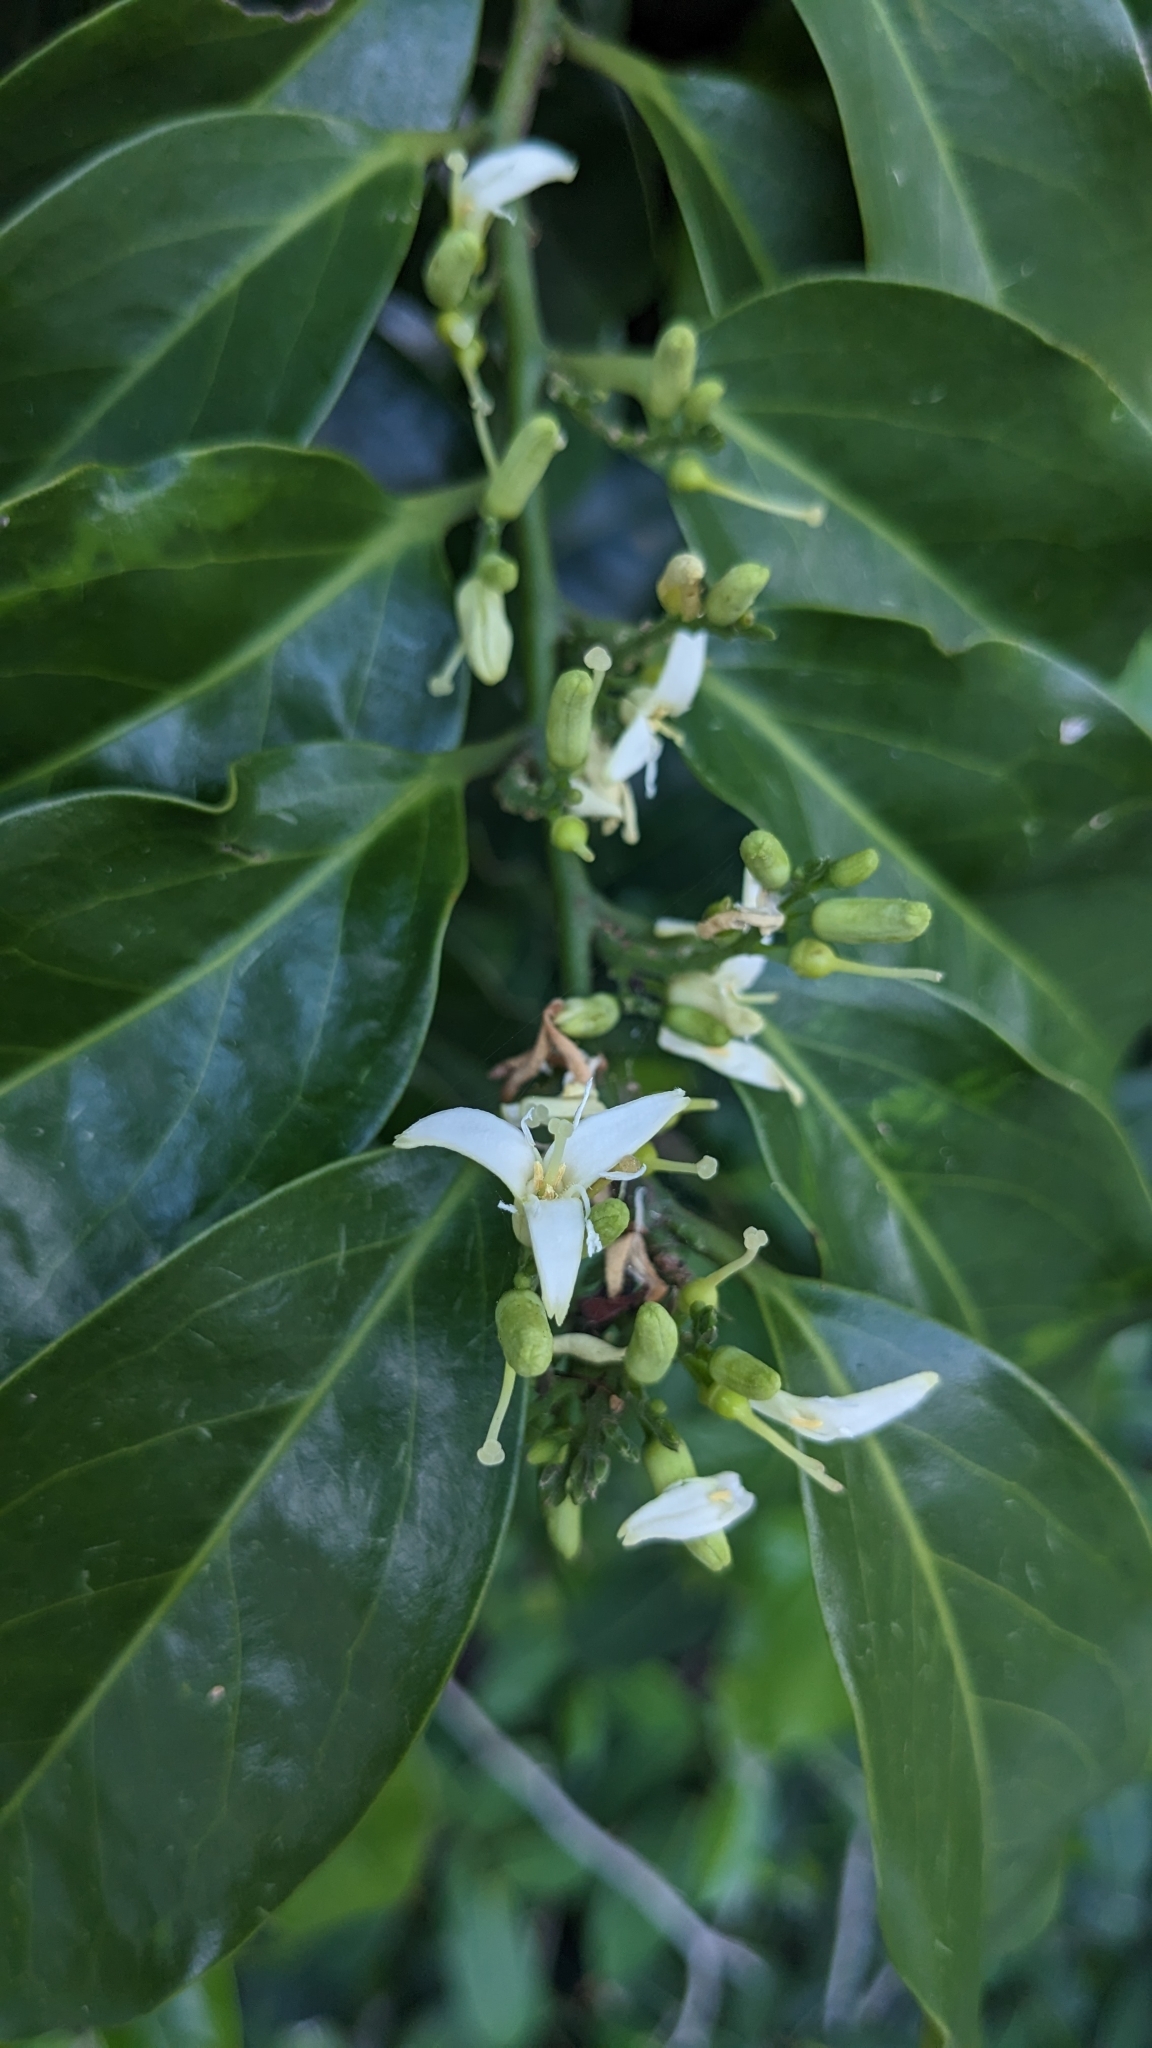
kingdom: Plantae
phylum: Tracheophyta
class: Magnoliopsida
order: Santalales
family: Olacaceae
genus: Olax
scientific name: Olax imbricata
